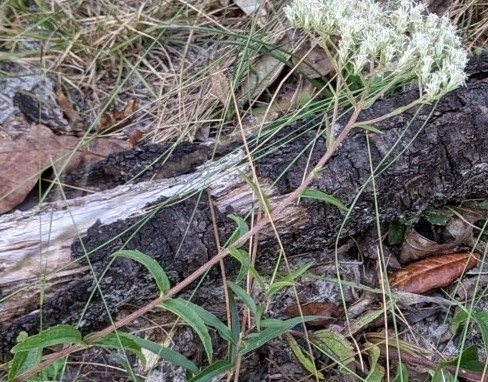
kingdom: Plantae
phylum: Tracheophyta
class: Magnoliopsida
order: Asterales
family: Asteraceae
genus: Eupatorium
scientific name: Eupatorium petaloideum
